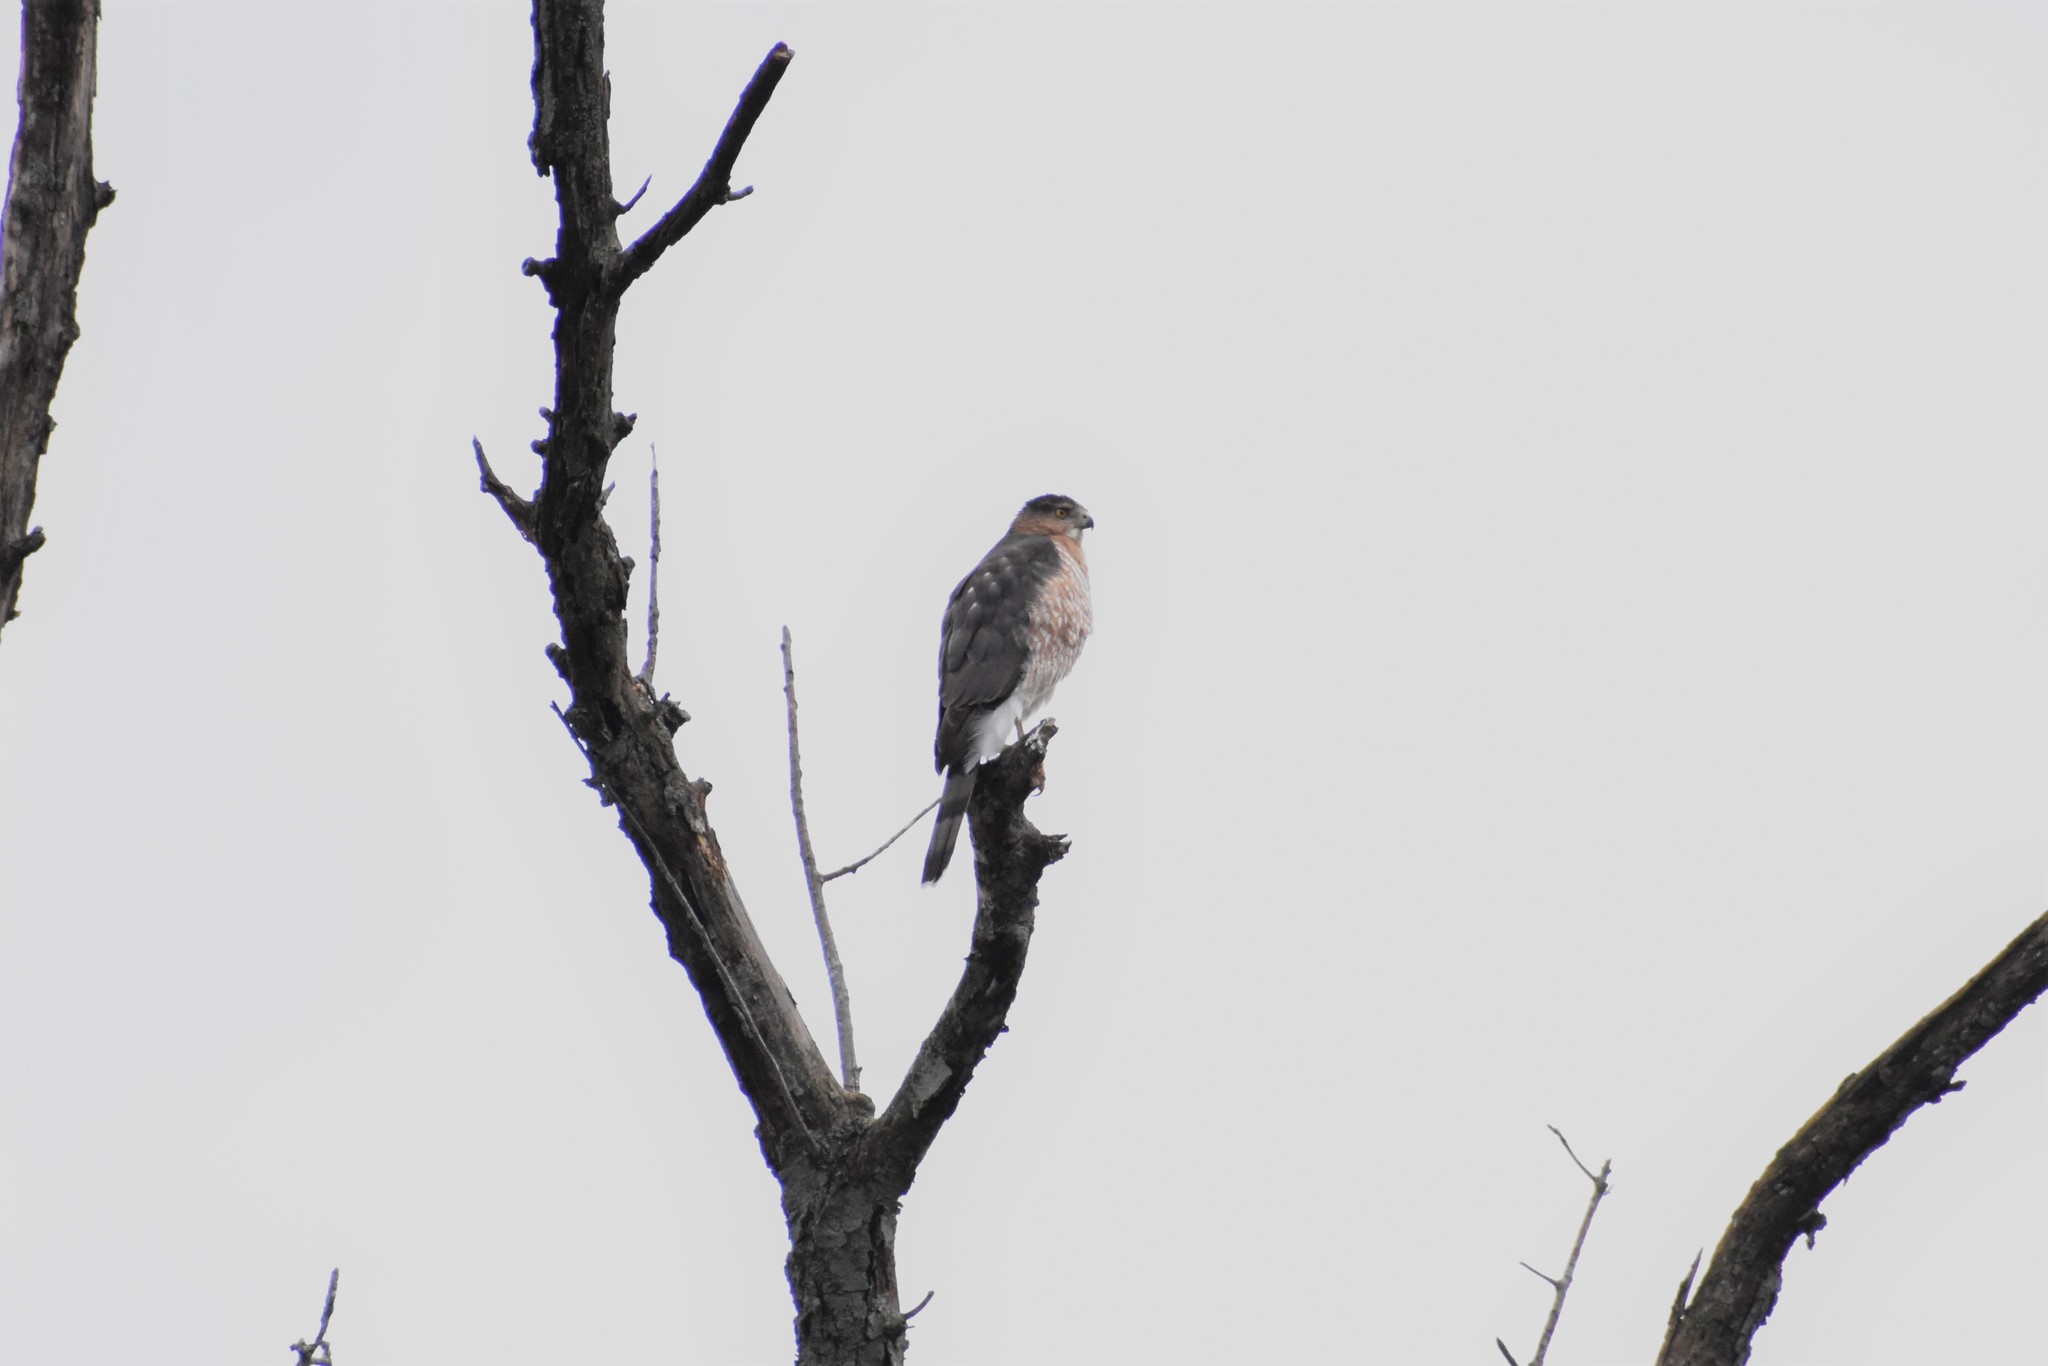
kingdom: Animalia
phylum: Chordata
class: Aves
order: Accipitriformes
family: Accipitridae
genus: Accipiter
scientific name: Accipiter cooperii
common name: Cooper's hawk
